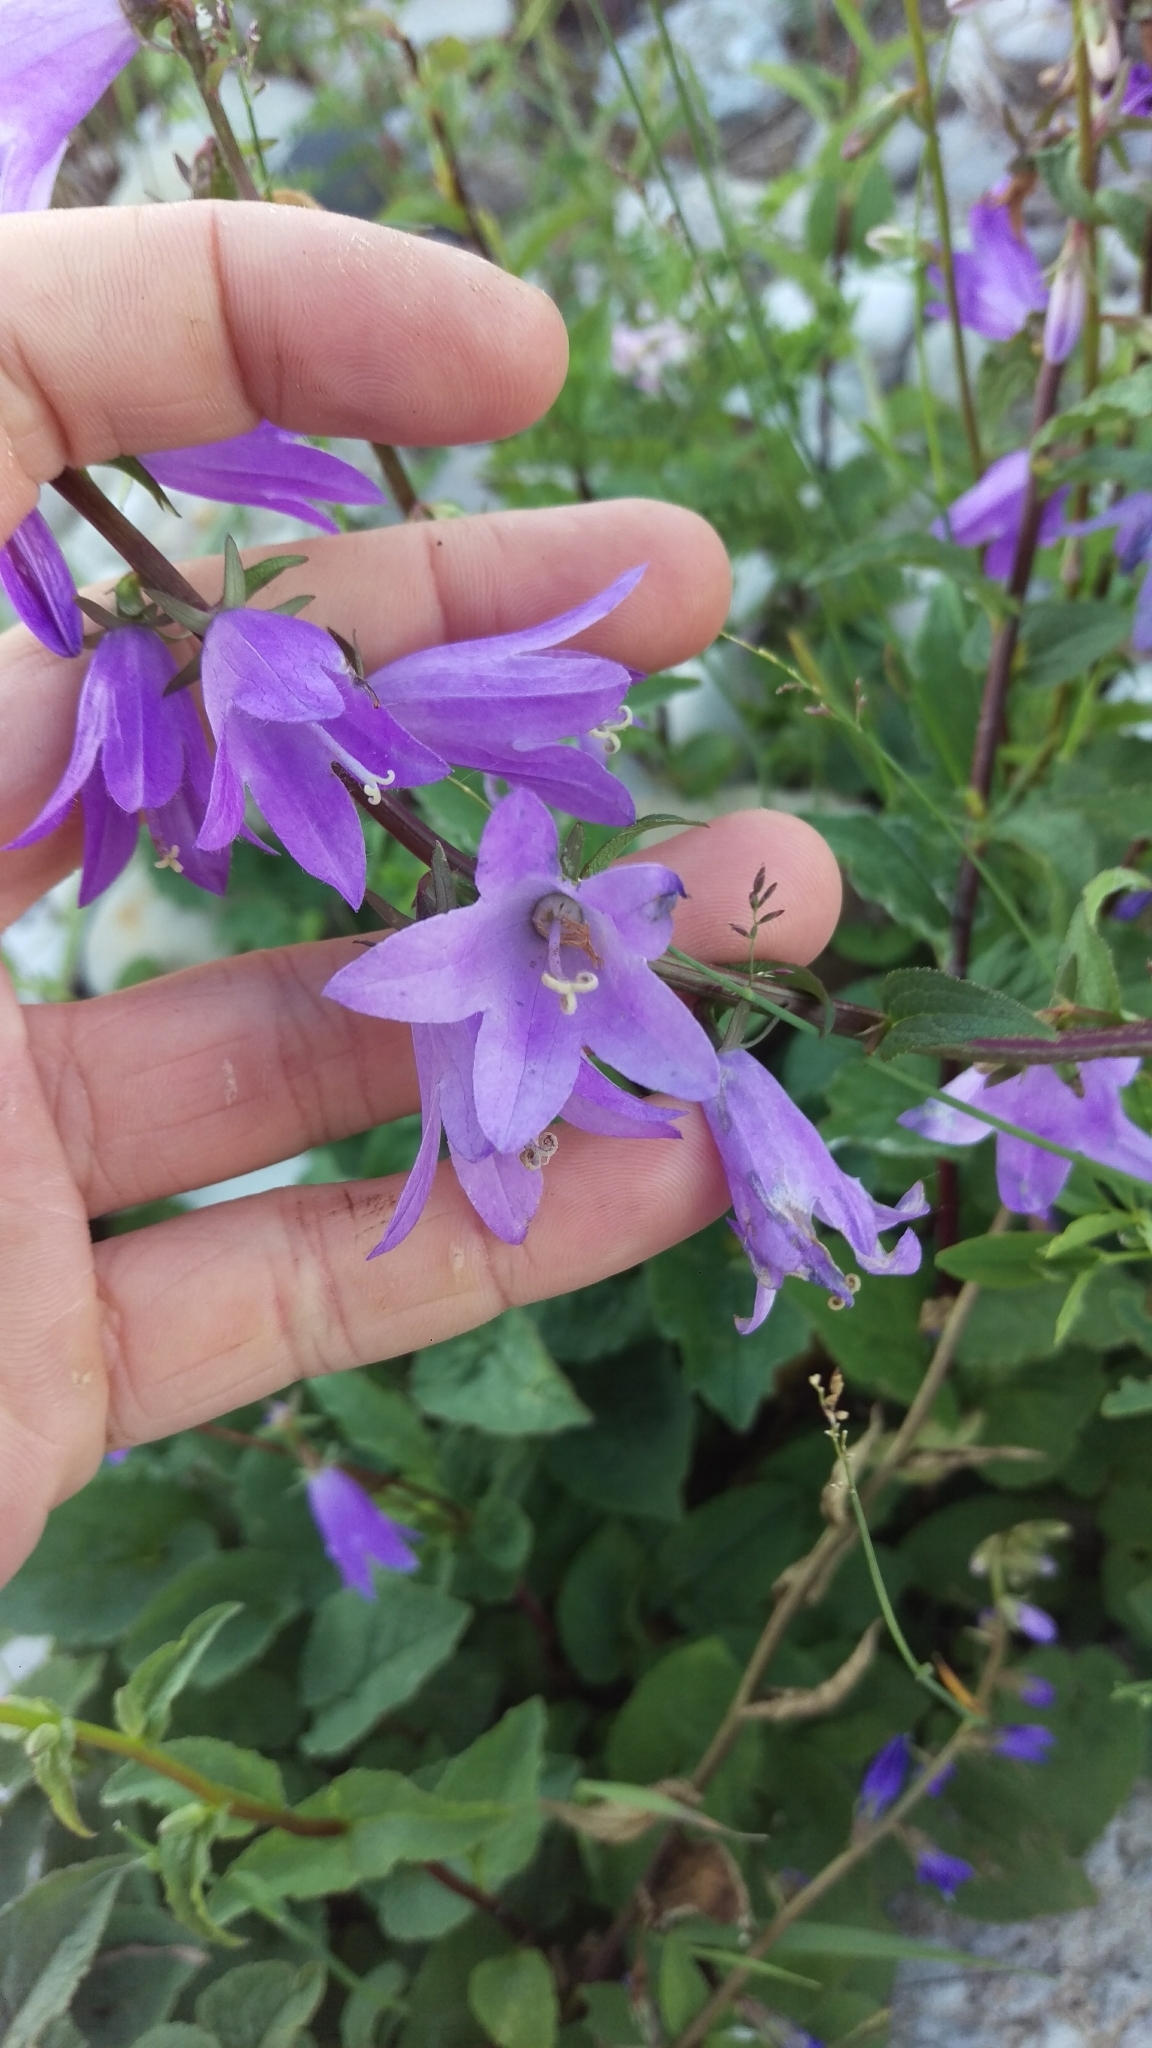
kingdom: Plantae
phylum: Tracheophyta
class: Magnoliopsida
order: Asterales
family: Campanulaceae
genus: Campanula
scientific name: Campanula rapunculoides
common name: Creeping bellflower
